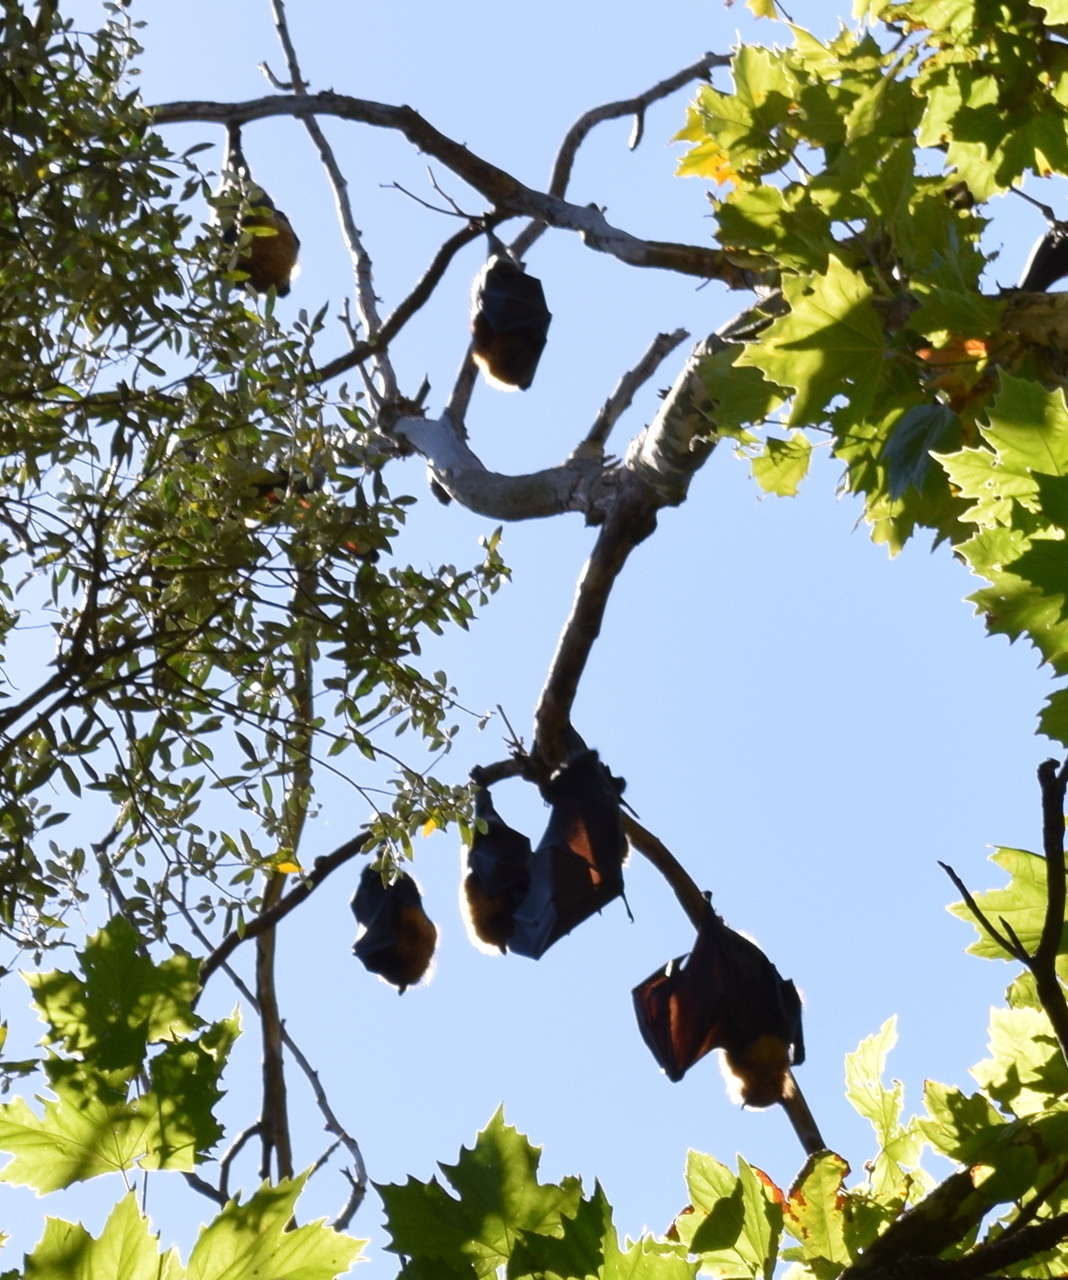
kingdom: Animalia
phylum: Chordata
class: Mammalia
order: Chiroptera
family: Pteropodidae
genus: Pteropus
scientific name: Pteropus poliocephalus
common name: Gray-headed flying fox
